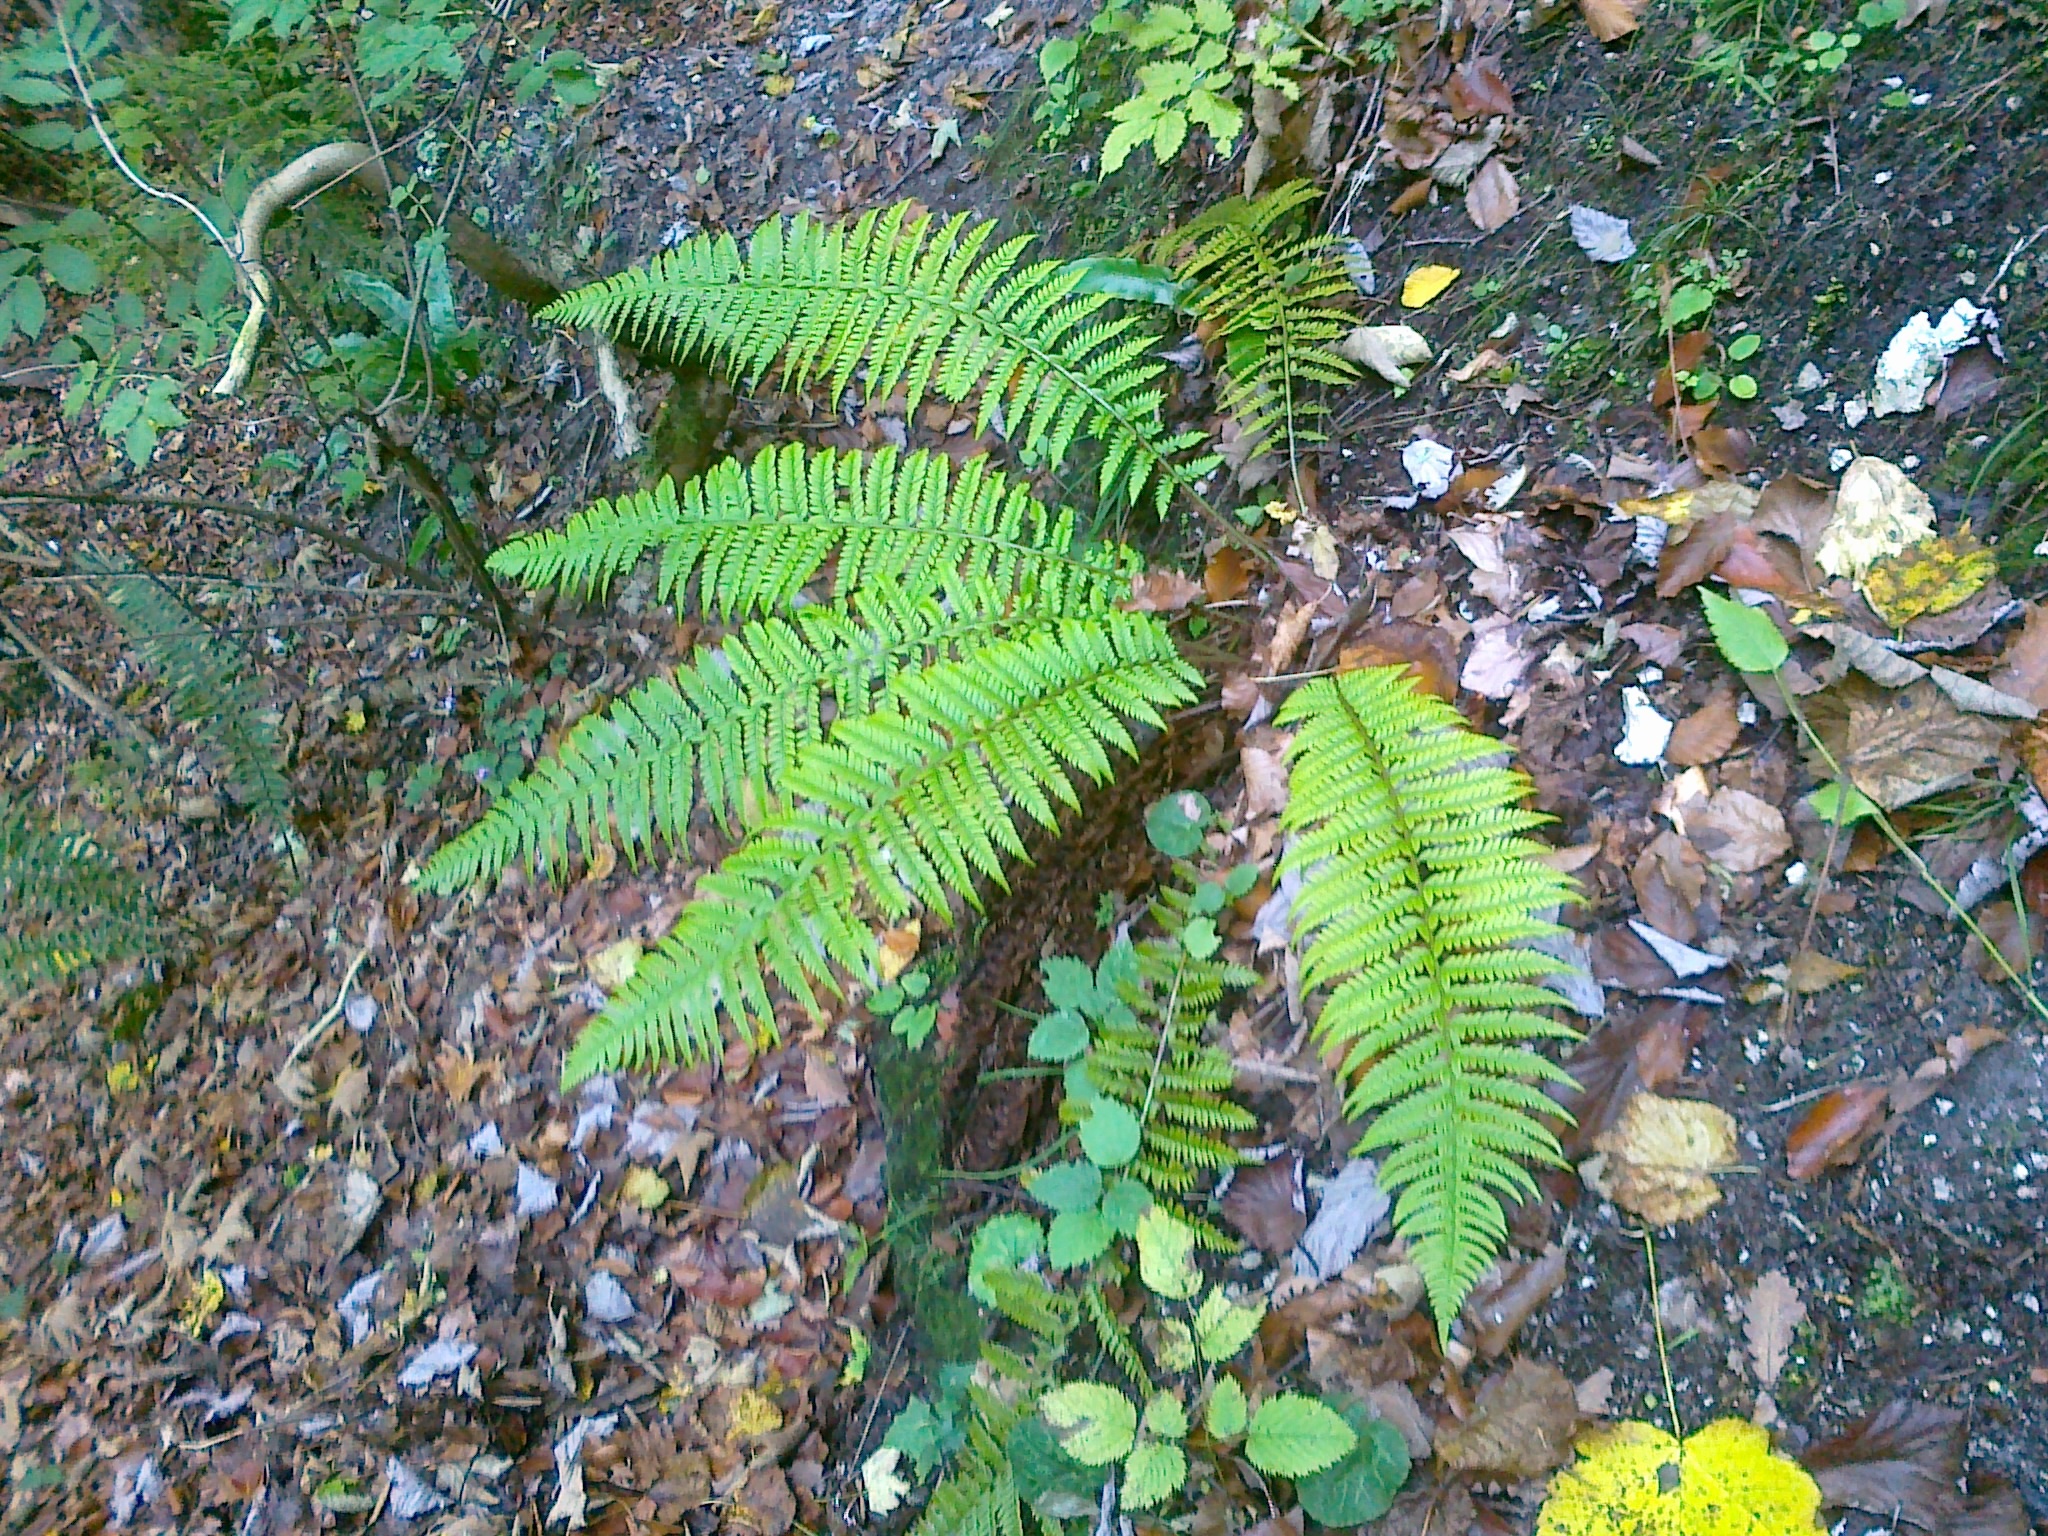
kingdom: Plantae
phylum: Tracheophyta
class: Polypodiopsida
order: Polypodiales
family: Dryopteridaceae
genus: Polystichum
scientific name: Polystichum aculeatum
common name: Hard shield-fern
